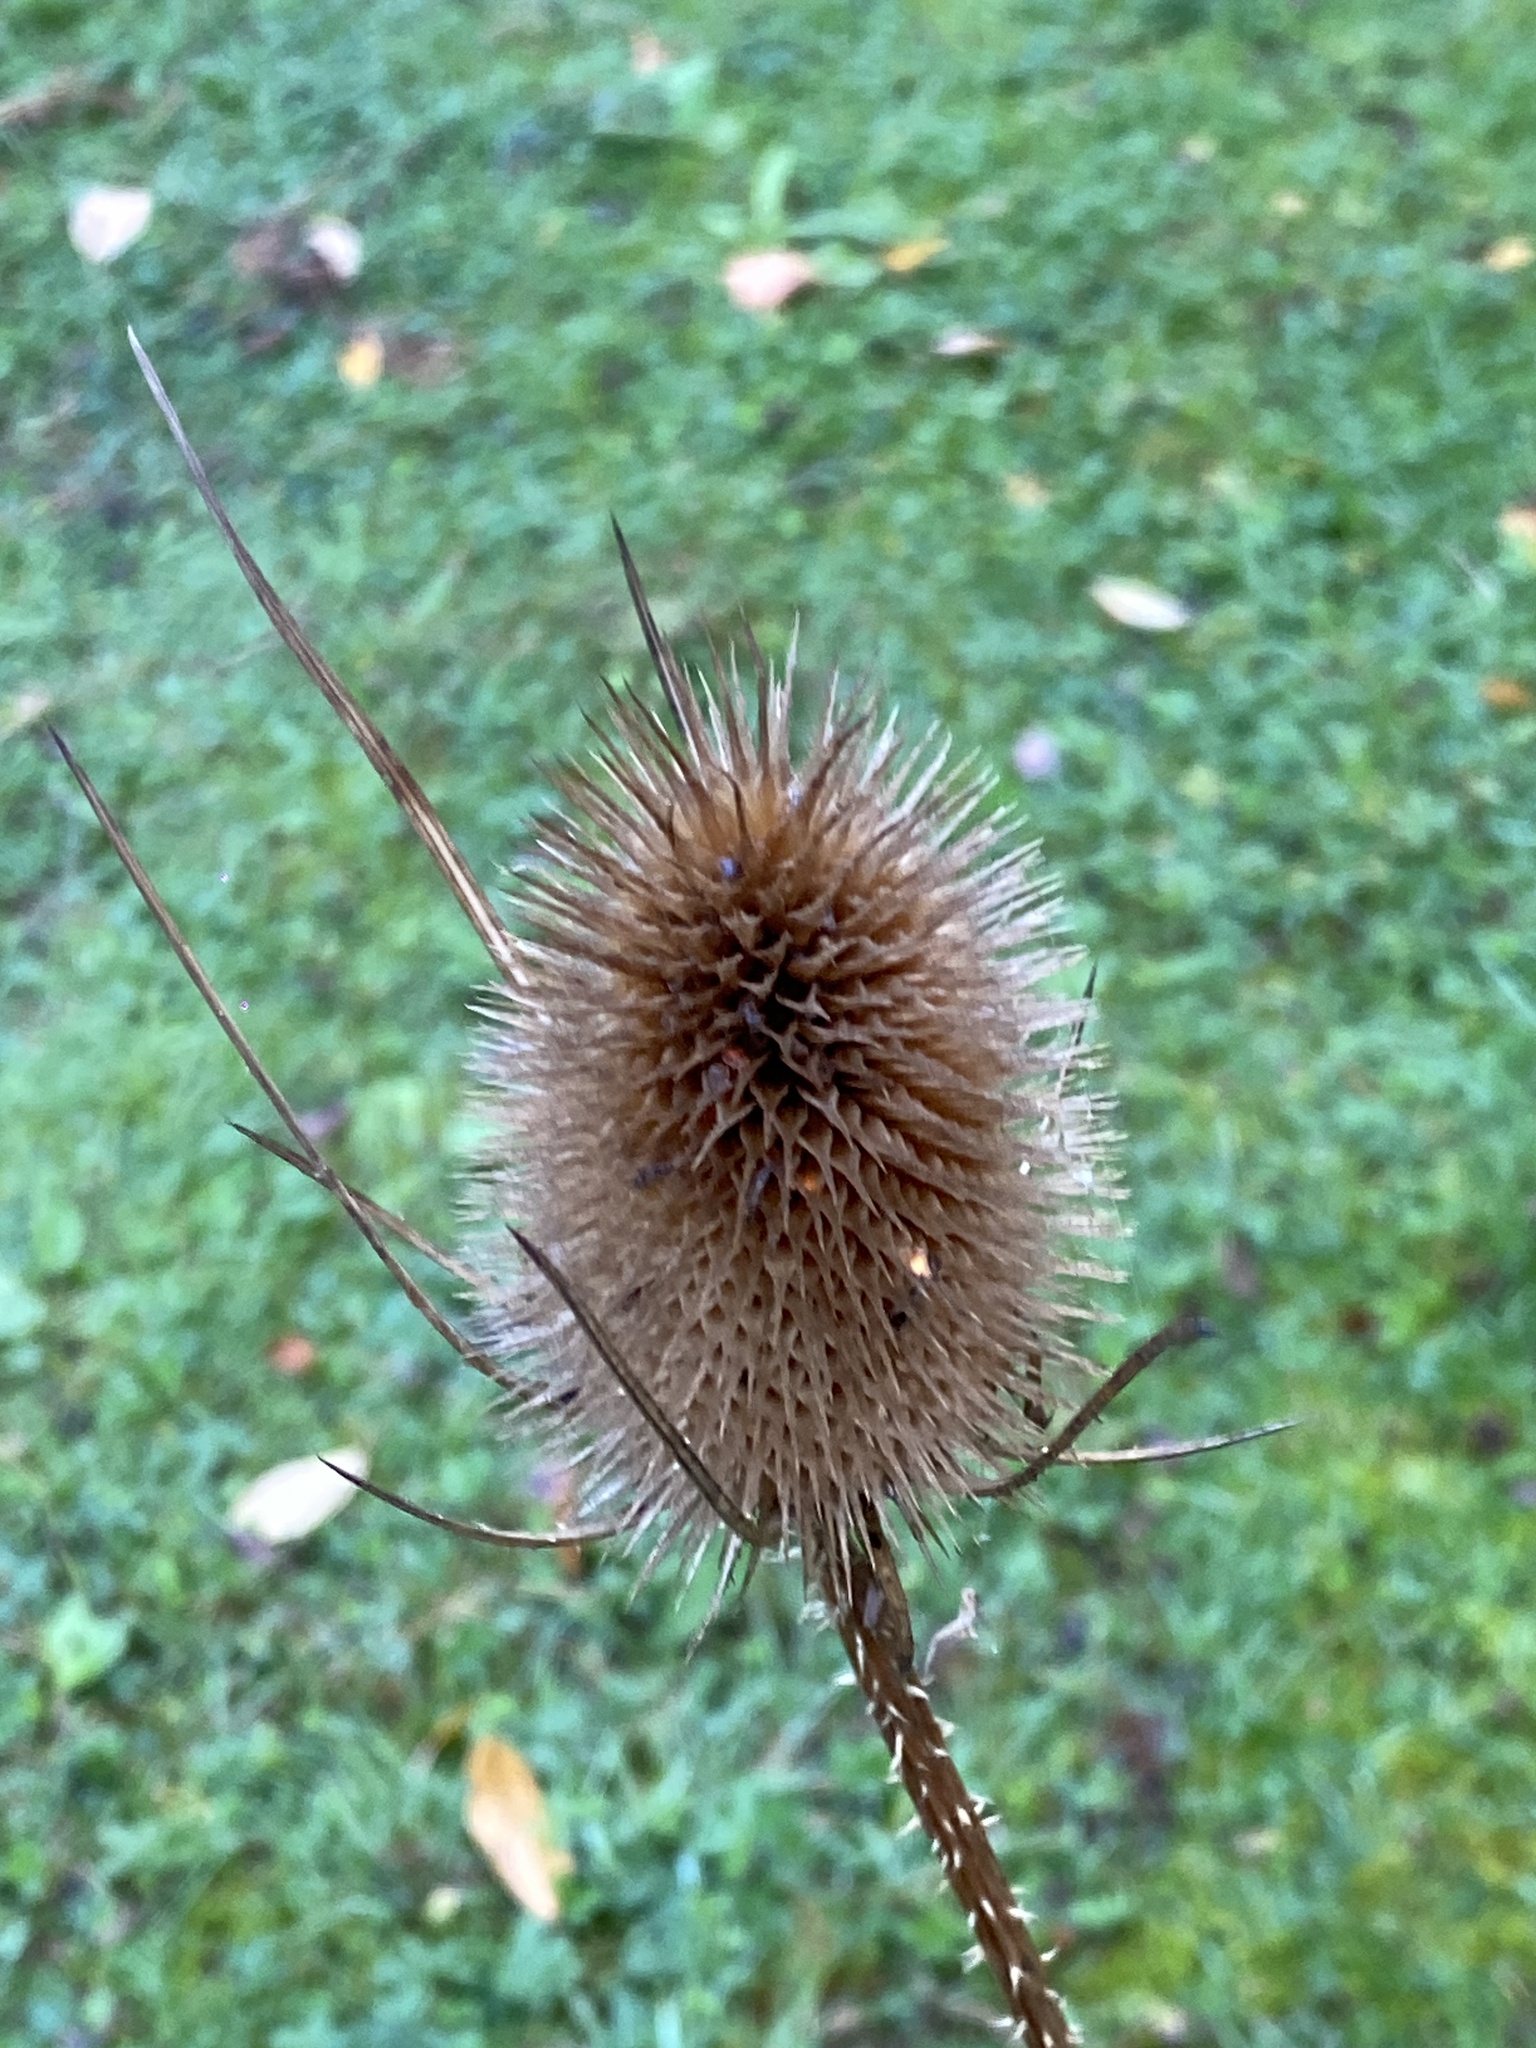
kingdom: Plantae
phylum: Tracheophyta
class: Magnoliopsida
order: Dipsacales
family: Caprifoliaceae
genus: Dipsacus
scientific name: Dipsacus fullonum
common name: Teasel
